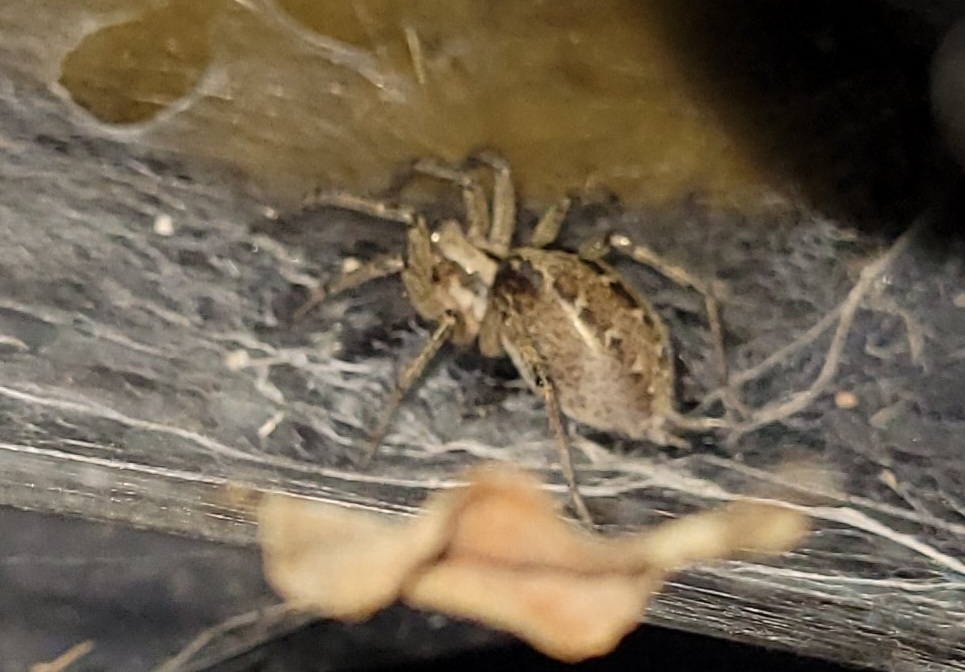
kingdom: Animalia
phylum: Arthropoda
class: Arachnida
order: Araneae
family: Agelenidae
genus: Agelena
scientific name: Agelena labyrinthica
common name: Labyrinth spider
